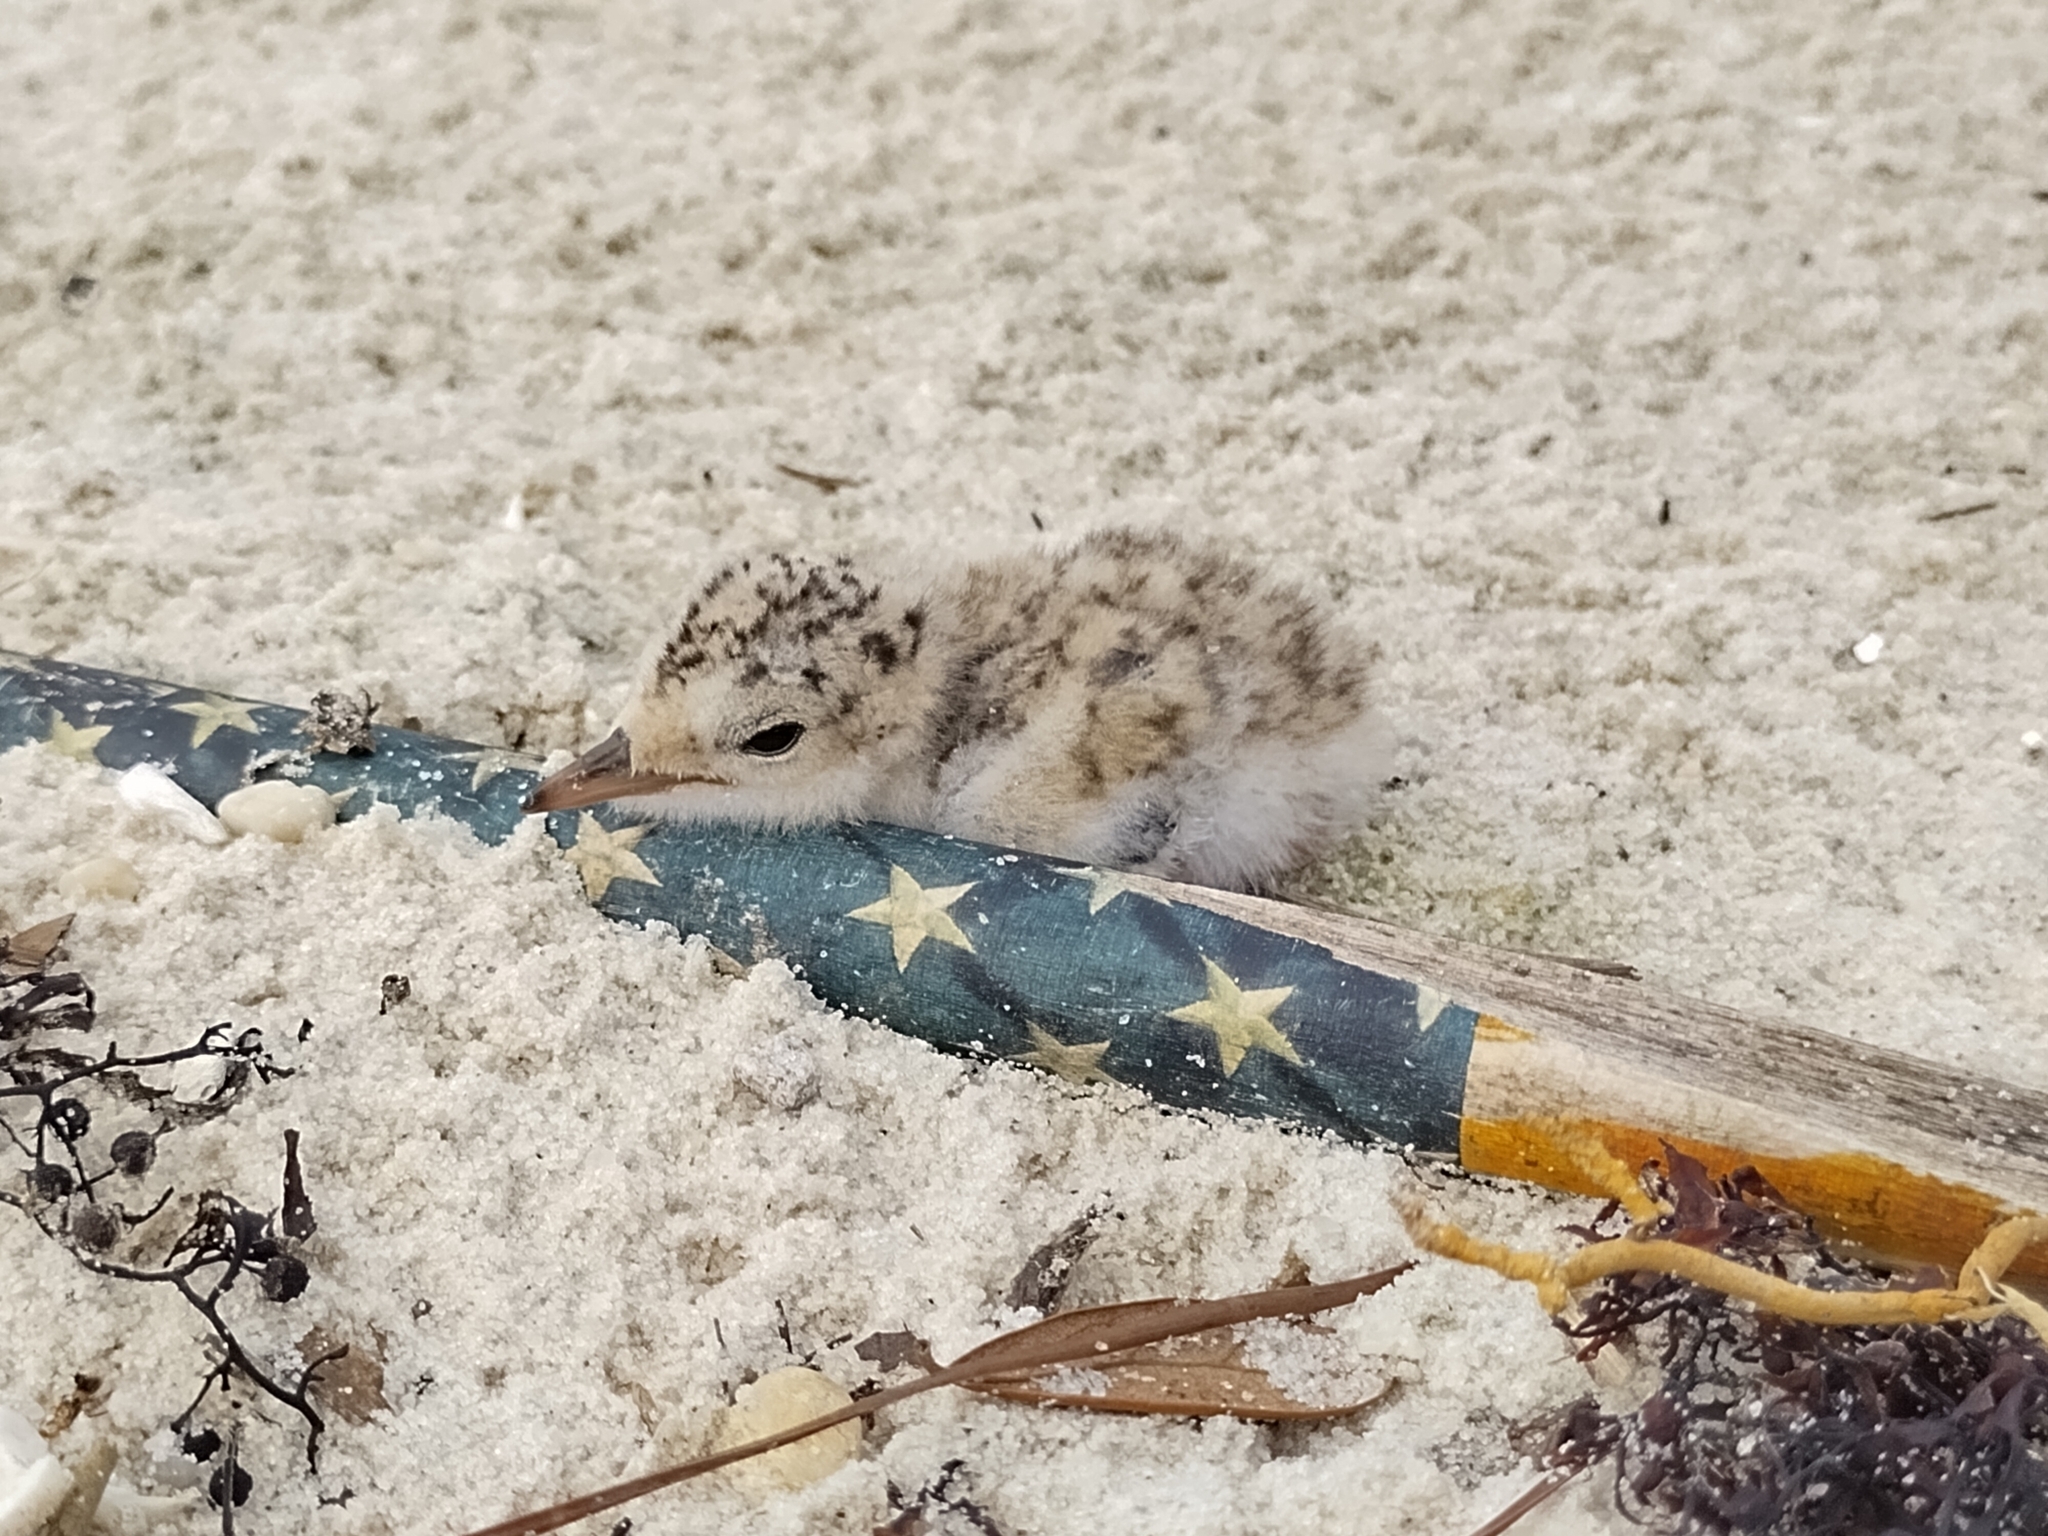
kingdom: Animalia
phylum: Chordata
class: Aves
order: Charadriiformes
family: Laridae
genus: Sternula
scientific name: Sternula antillarum
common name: Least tern
